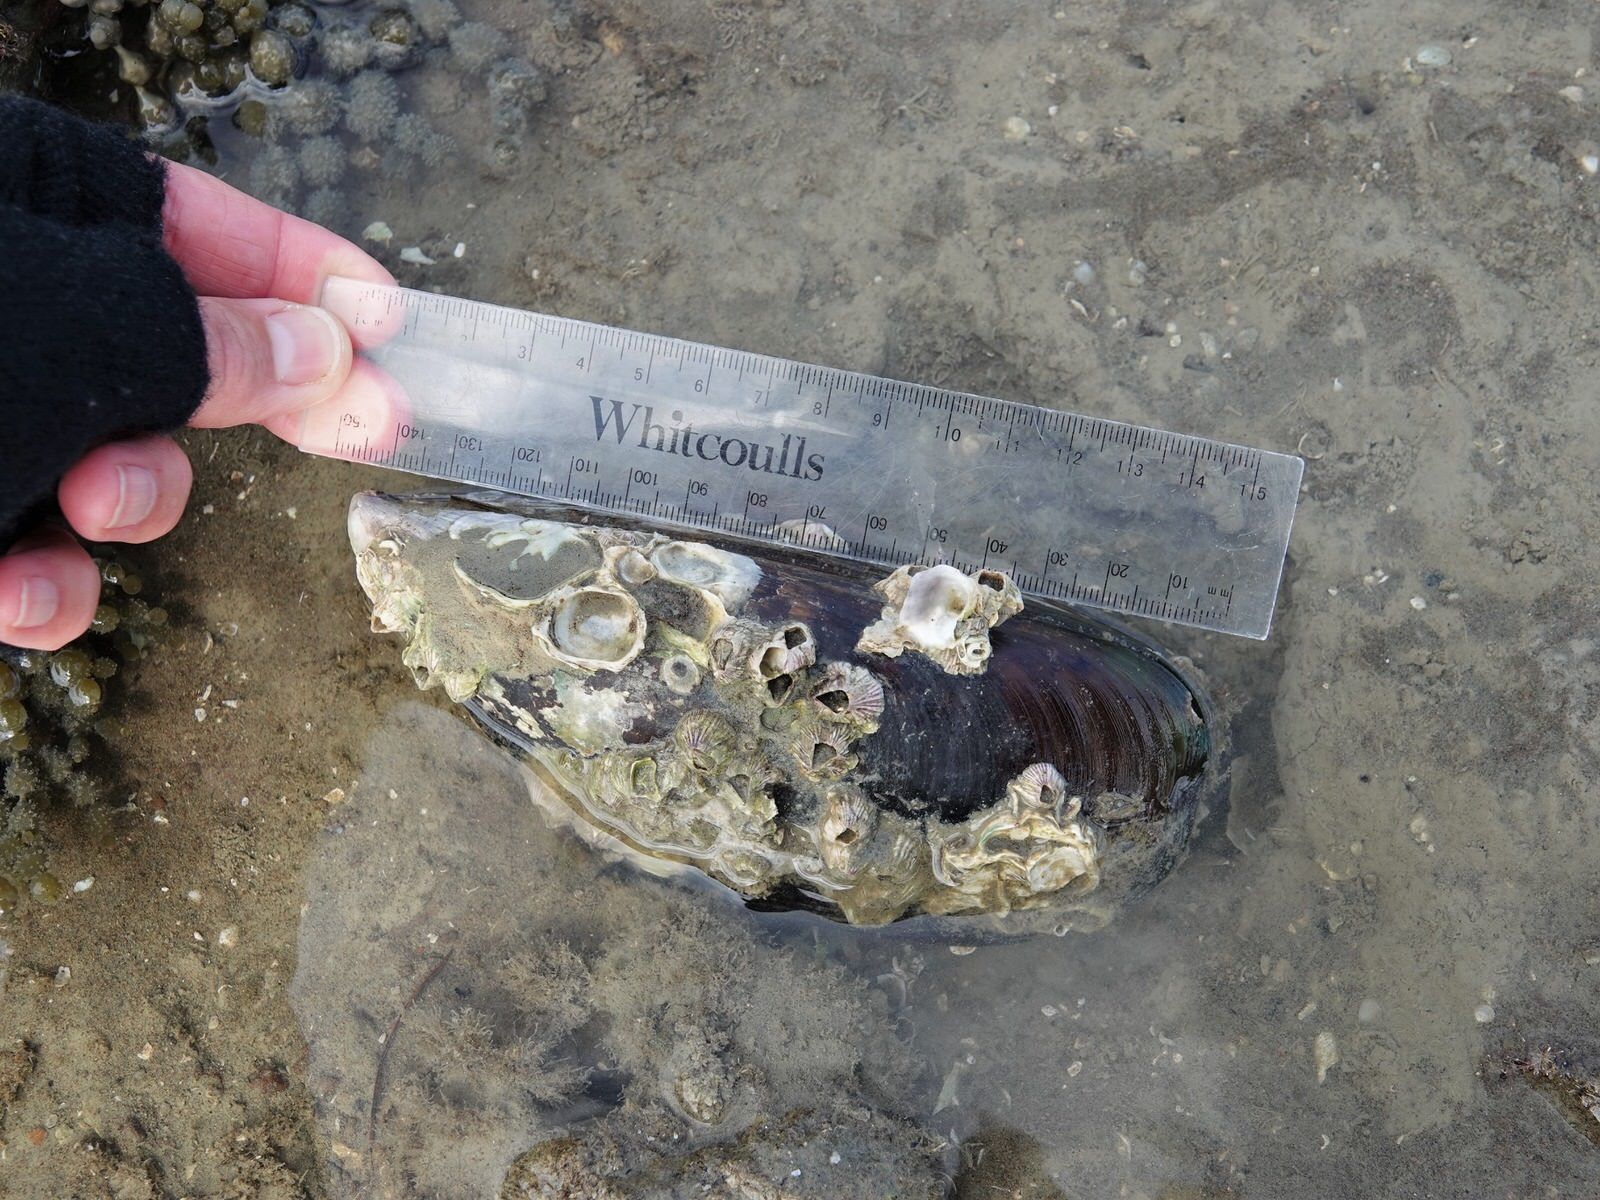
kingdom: Animalia
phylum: Mollusca
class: Bivalvia
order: Mytilida
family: Mytilidae
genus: Perna
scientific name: Perna canaliculus
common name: New zealand greenshelltm
